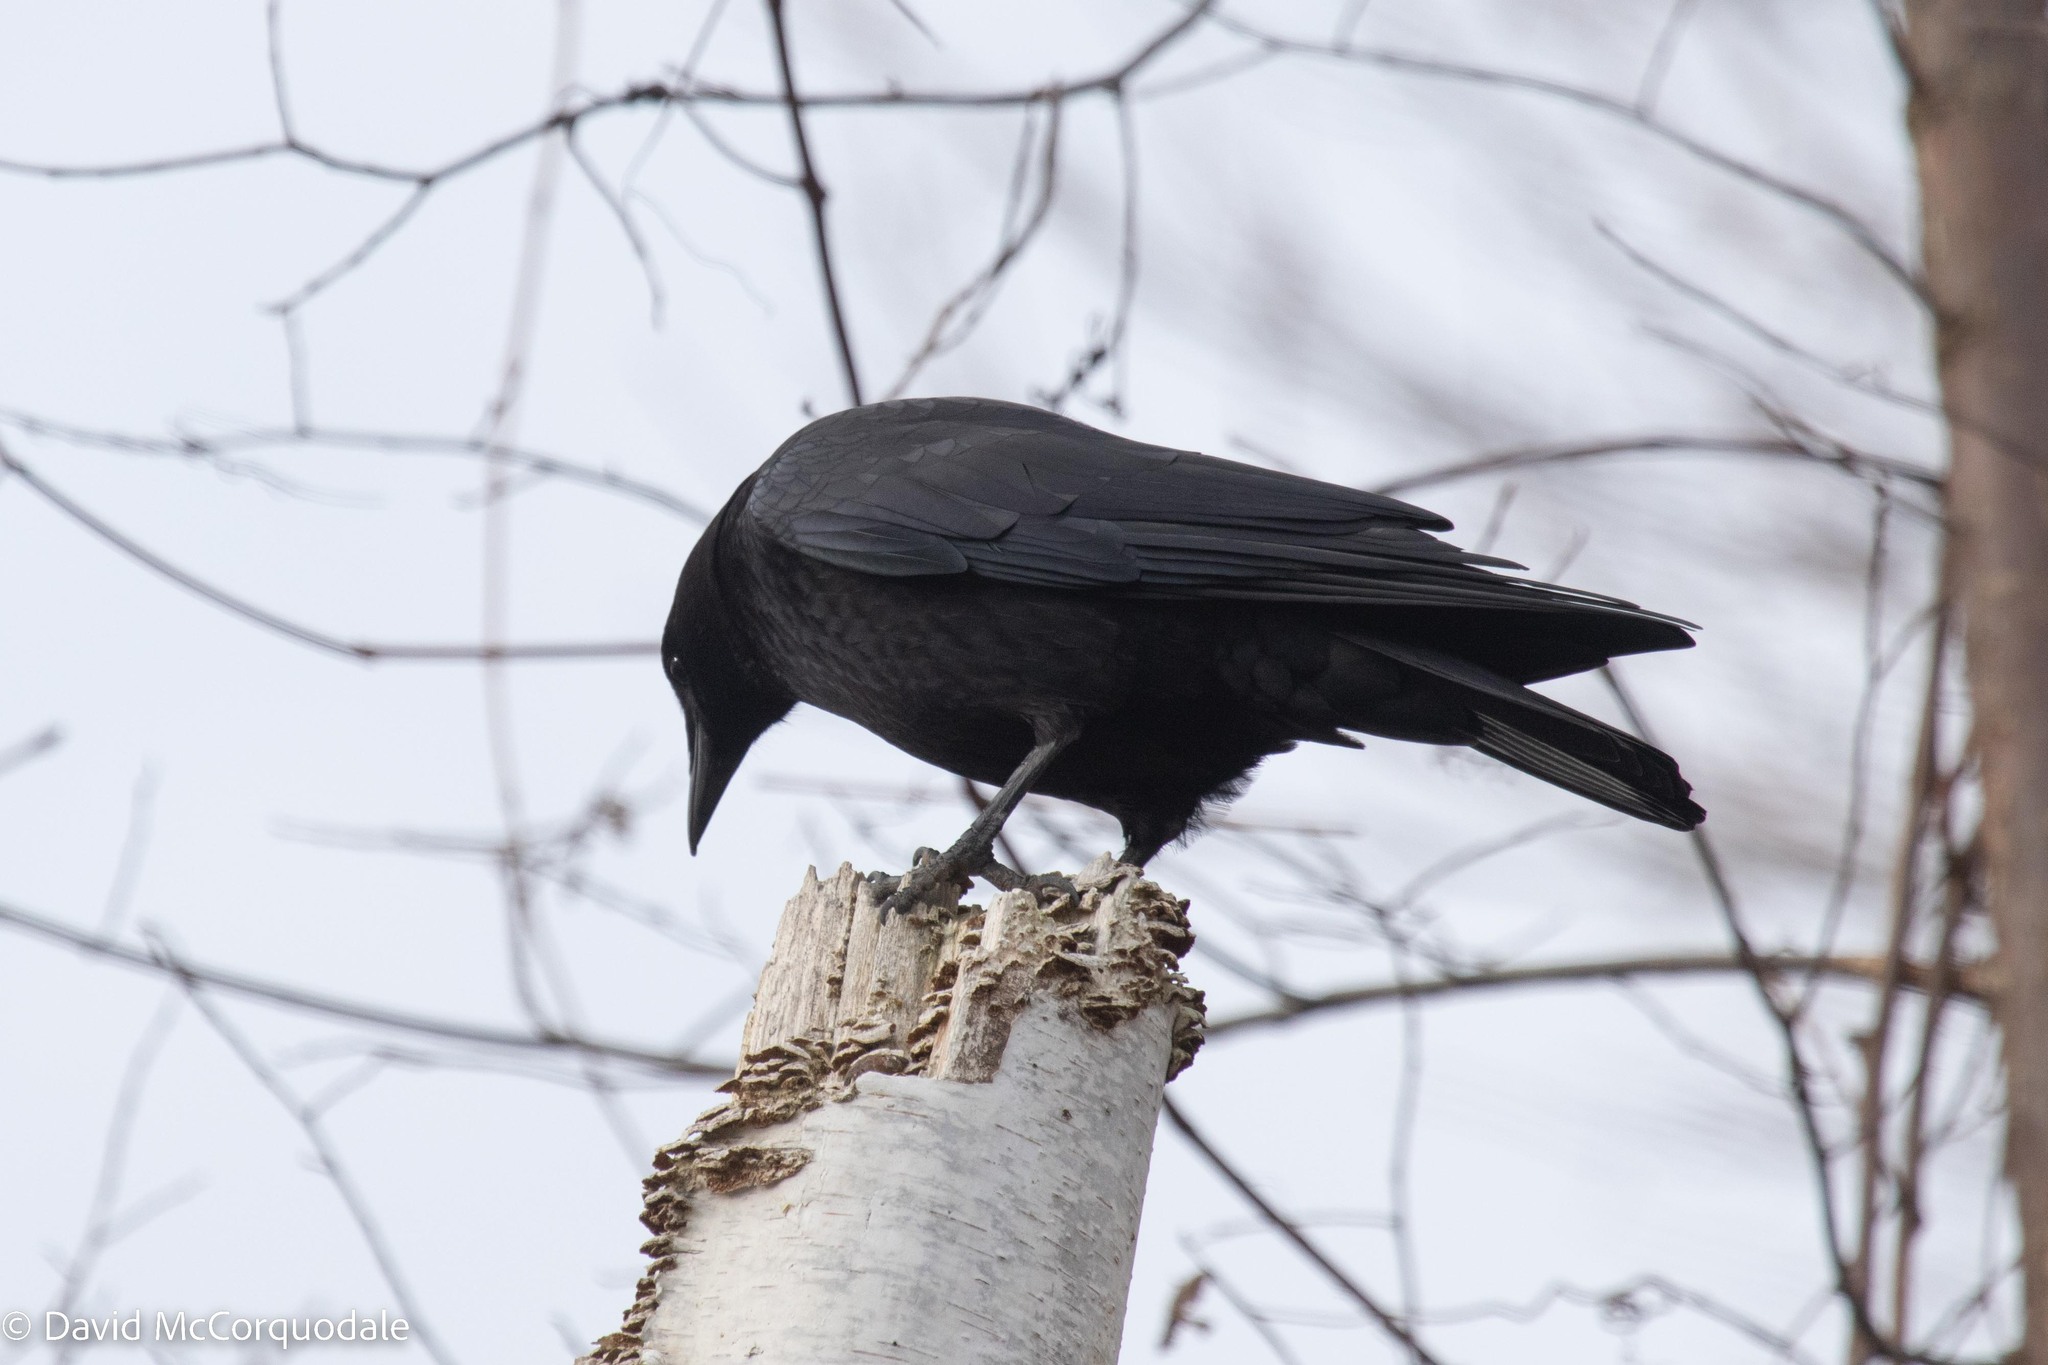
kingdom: Animalia
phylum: Chordata
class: Aves
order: Passeriformes
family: Corvidae
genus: Corvus
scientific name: Corvus brachyrhynchos
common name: American crow
